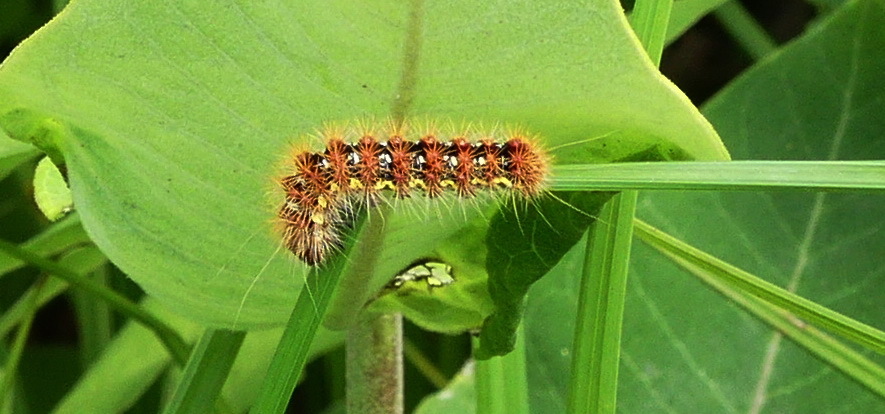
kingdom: Animalia
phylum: Arthropoda
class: Insecta
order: Lepidoptera
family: Noctuidae
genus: Acronicta
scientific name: Acronicta oblinita
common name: Smeared dagger
